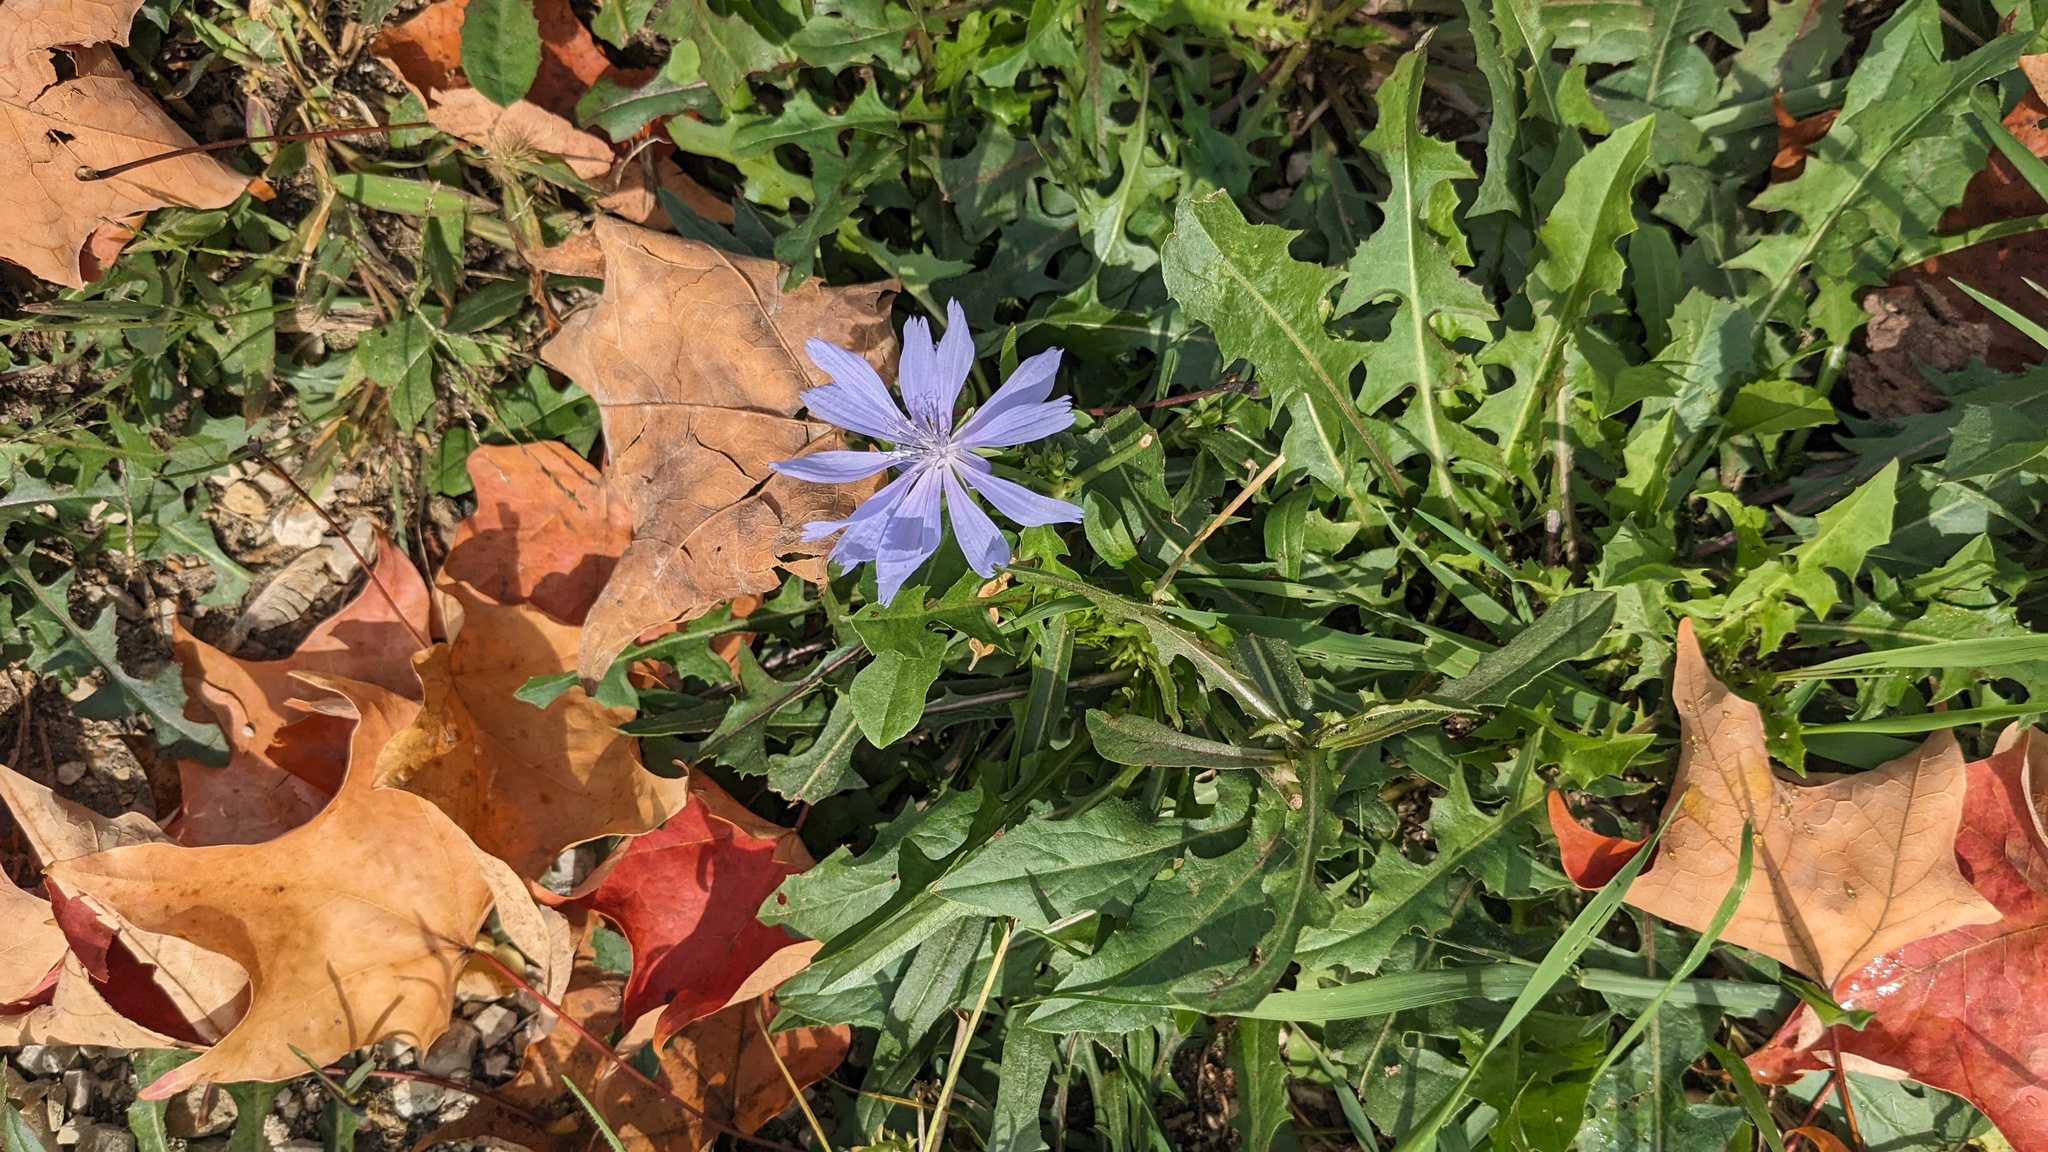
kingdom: Plantae
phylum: Tracheophyta
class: Magnoliopsida
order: Asterales
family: Asteraceae
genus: Cichorium
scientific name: Cichorium intybus
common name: Chicory
